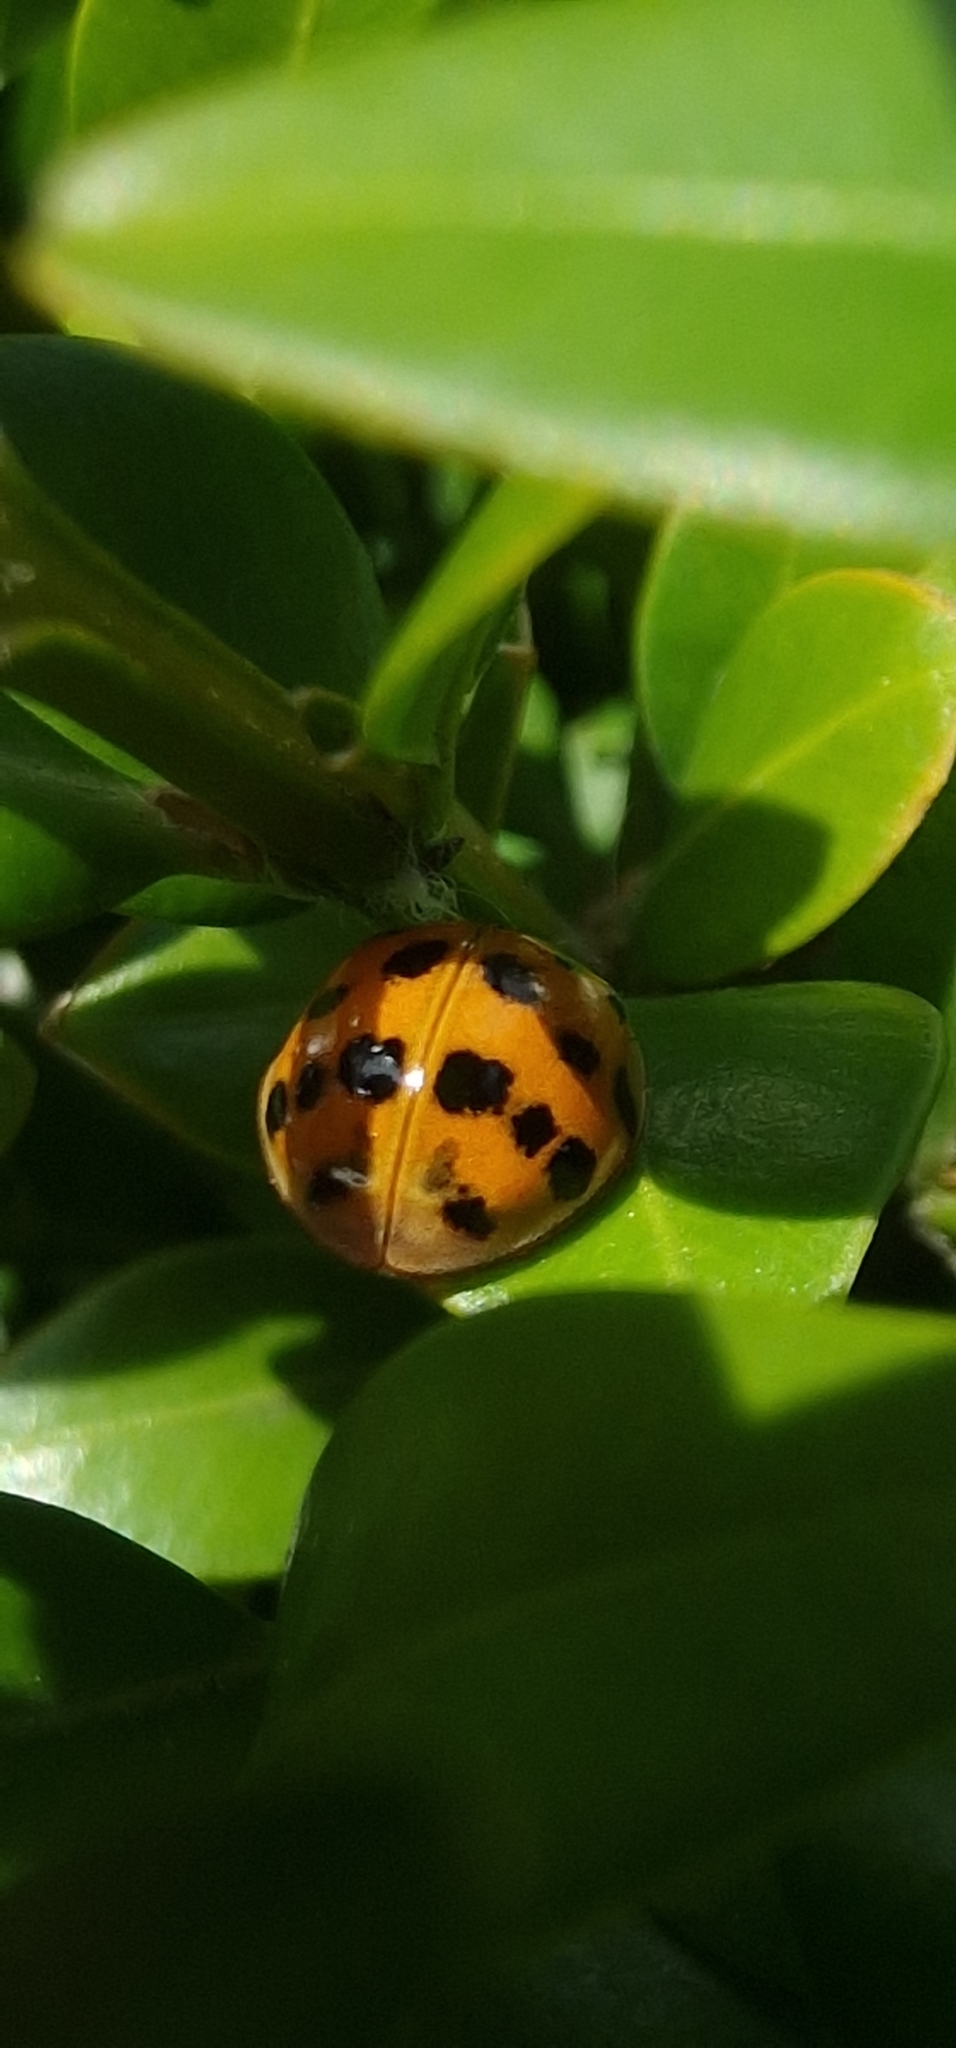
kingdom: Animalia
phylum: Arthropoda
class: Insecta
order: Coleoptera
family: Coccinellidae
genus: Harmonia
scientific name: Harmonia axyridis
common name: Harlequin ladybird
